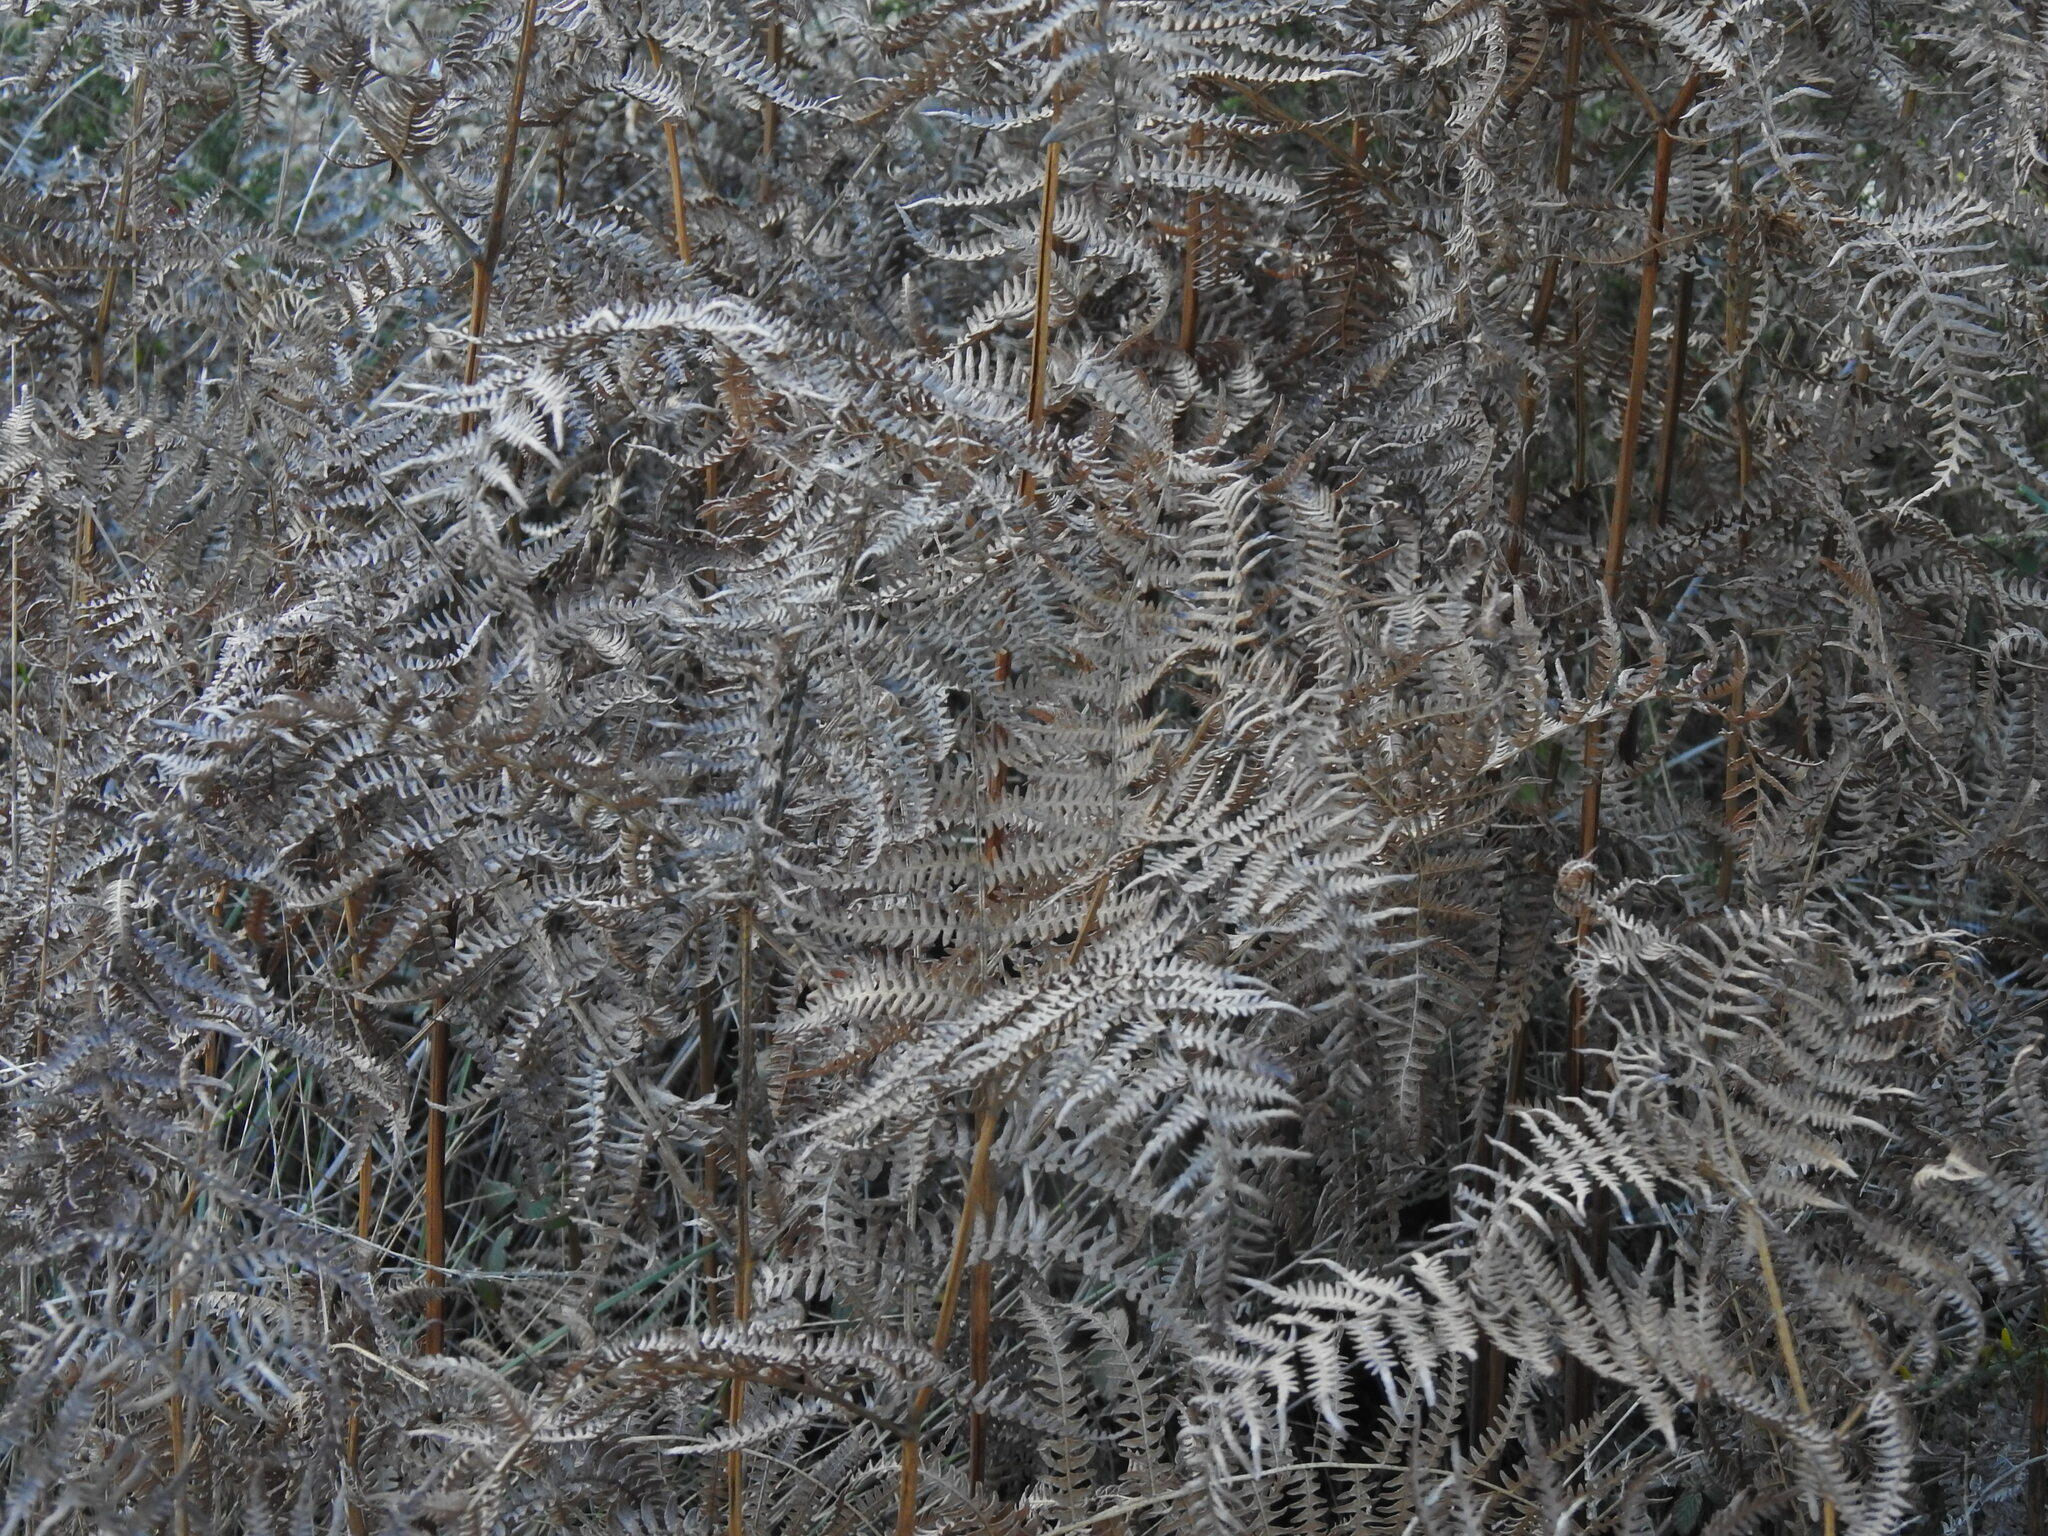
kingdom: Plantae
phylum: Tracheophyta
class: Polypodiopsida
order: Polypodiales
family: Dennstaedtiaceae
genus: Pteridium
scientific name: Pteridium aquilinum
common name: Bracken
